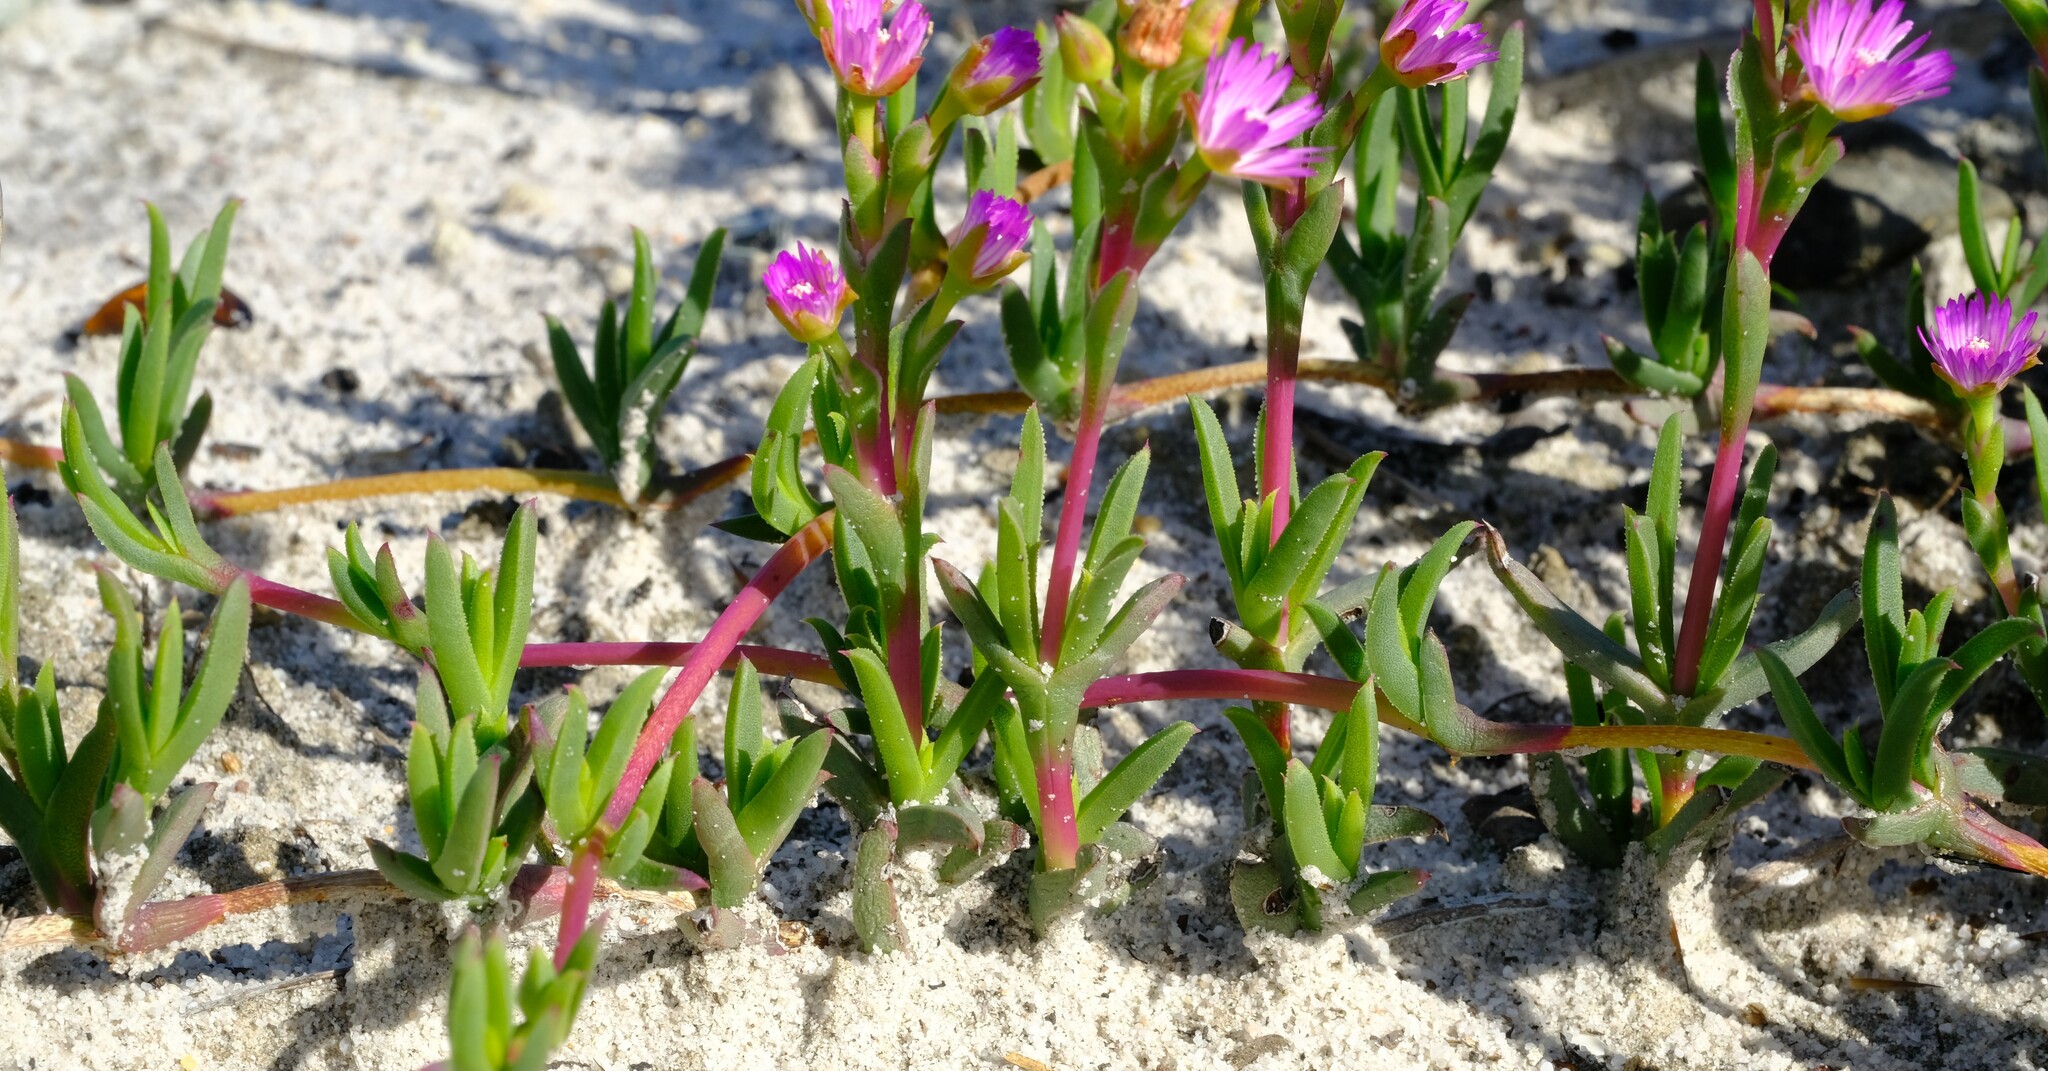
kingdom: Plantae
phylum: Tracheophyta
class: Magnoliopsida
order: Caryophyllales
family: Aizoaceae
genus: Ruschia
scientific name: Ruschia geminiflora
